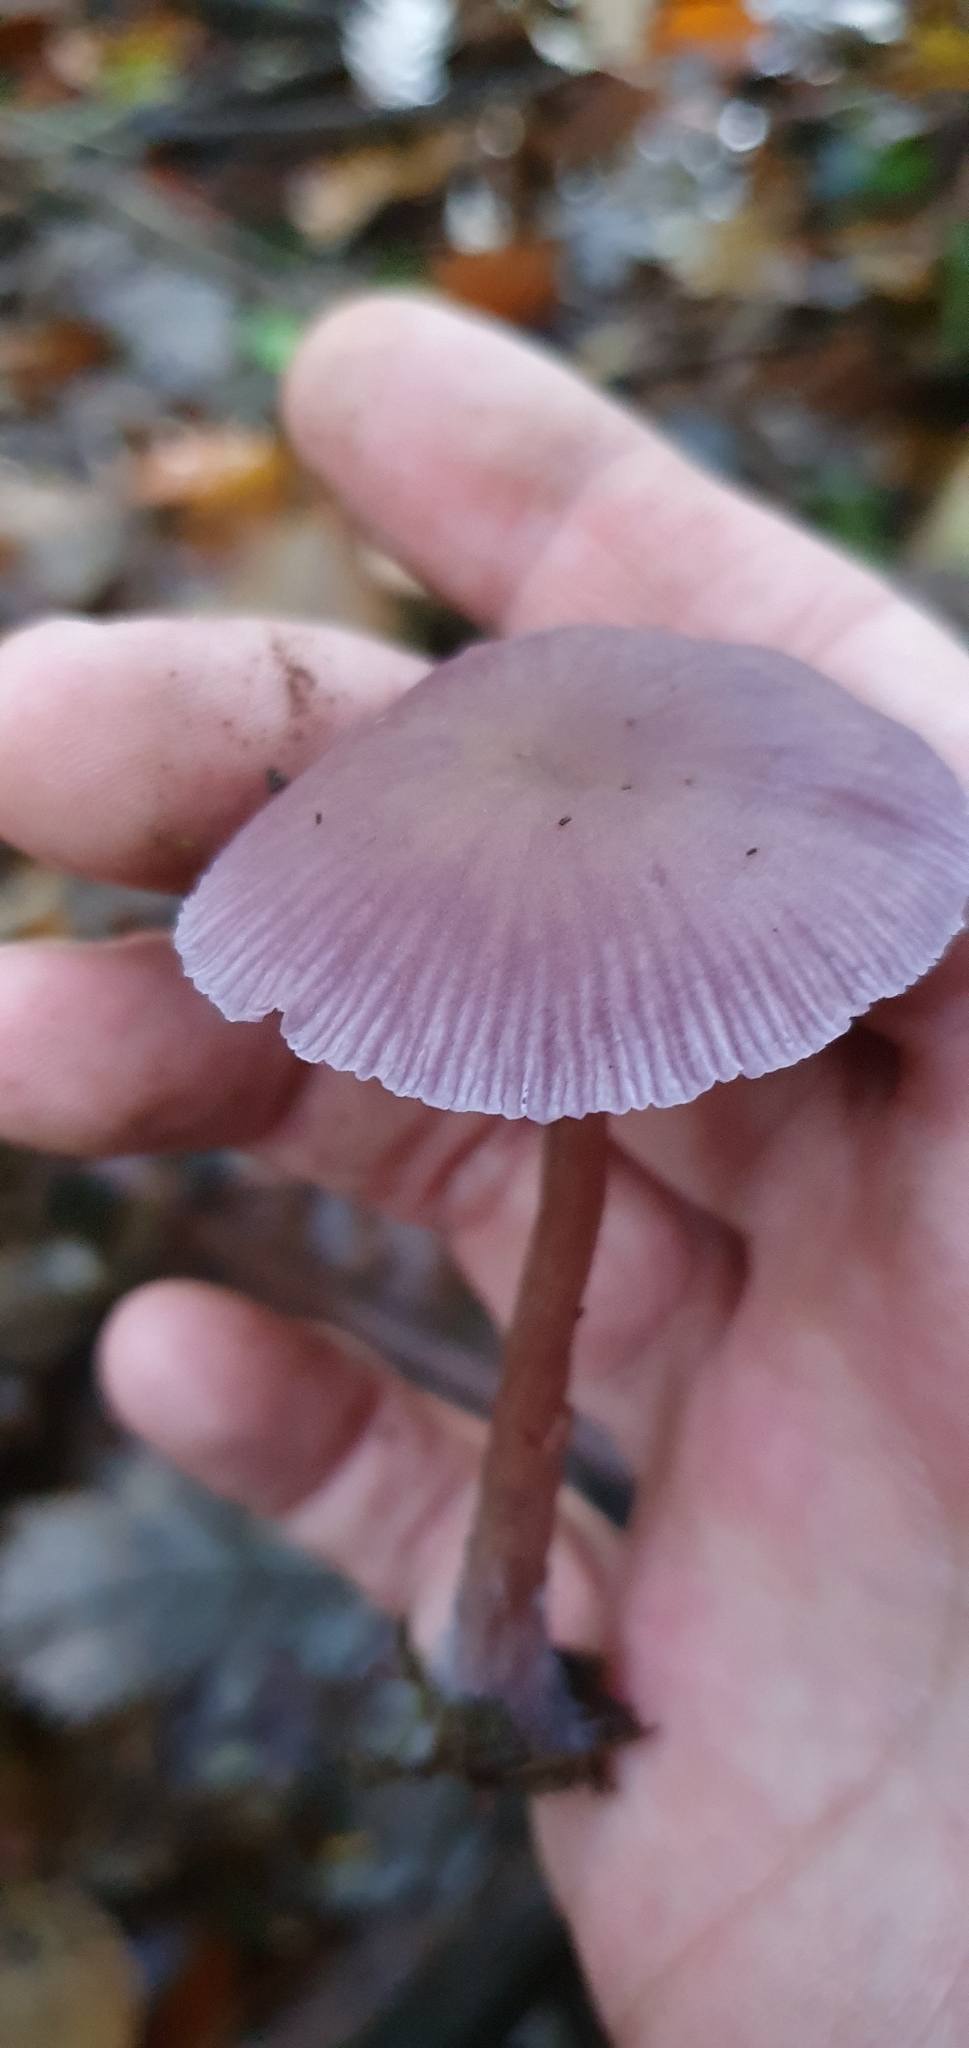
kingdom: Fungi
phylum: Basidiomycota
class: Agaricomycetes
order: Agaricales
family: Hydnangiaceae
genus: Laccaria
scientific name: Laccaria amethystina
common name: Amethyst deceiver
